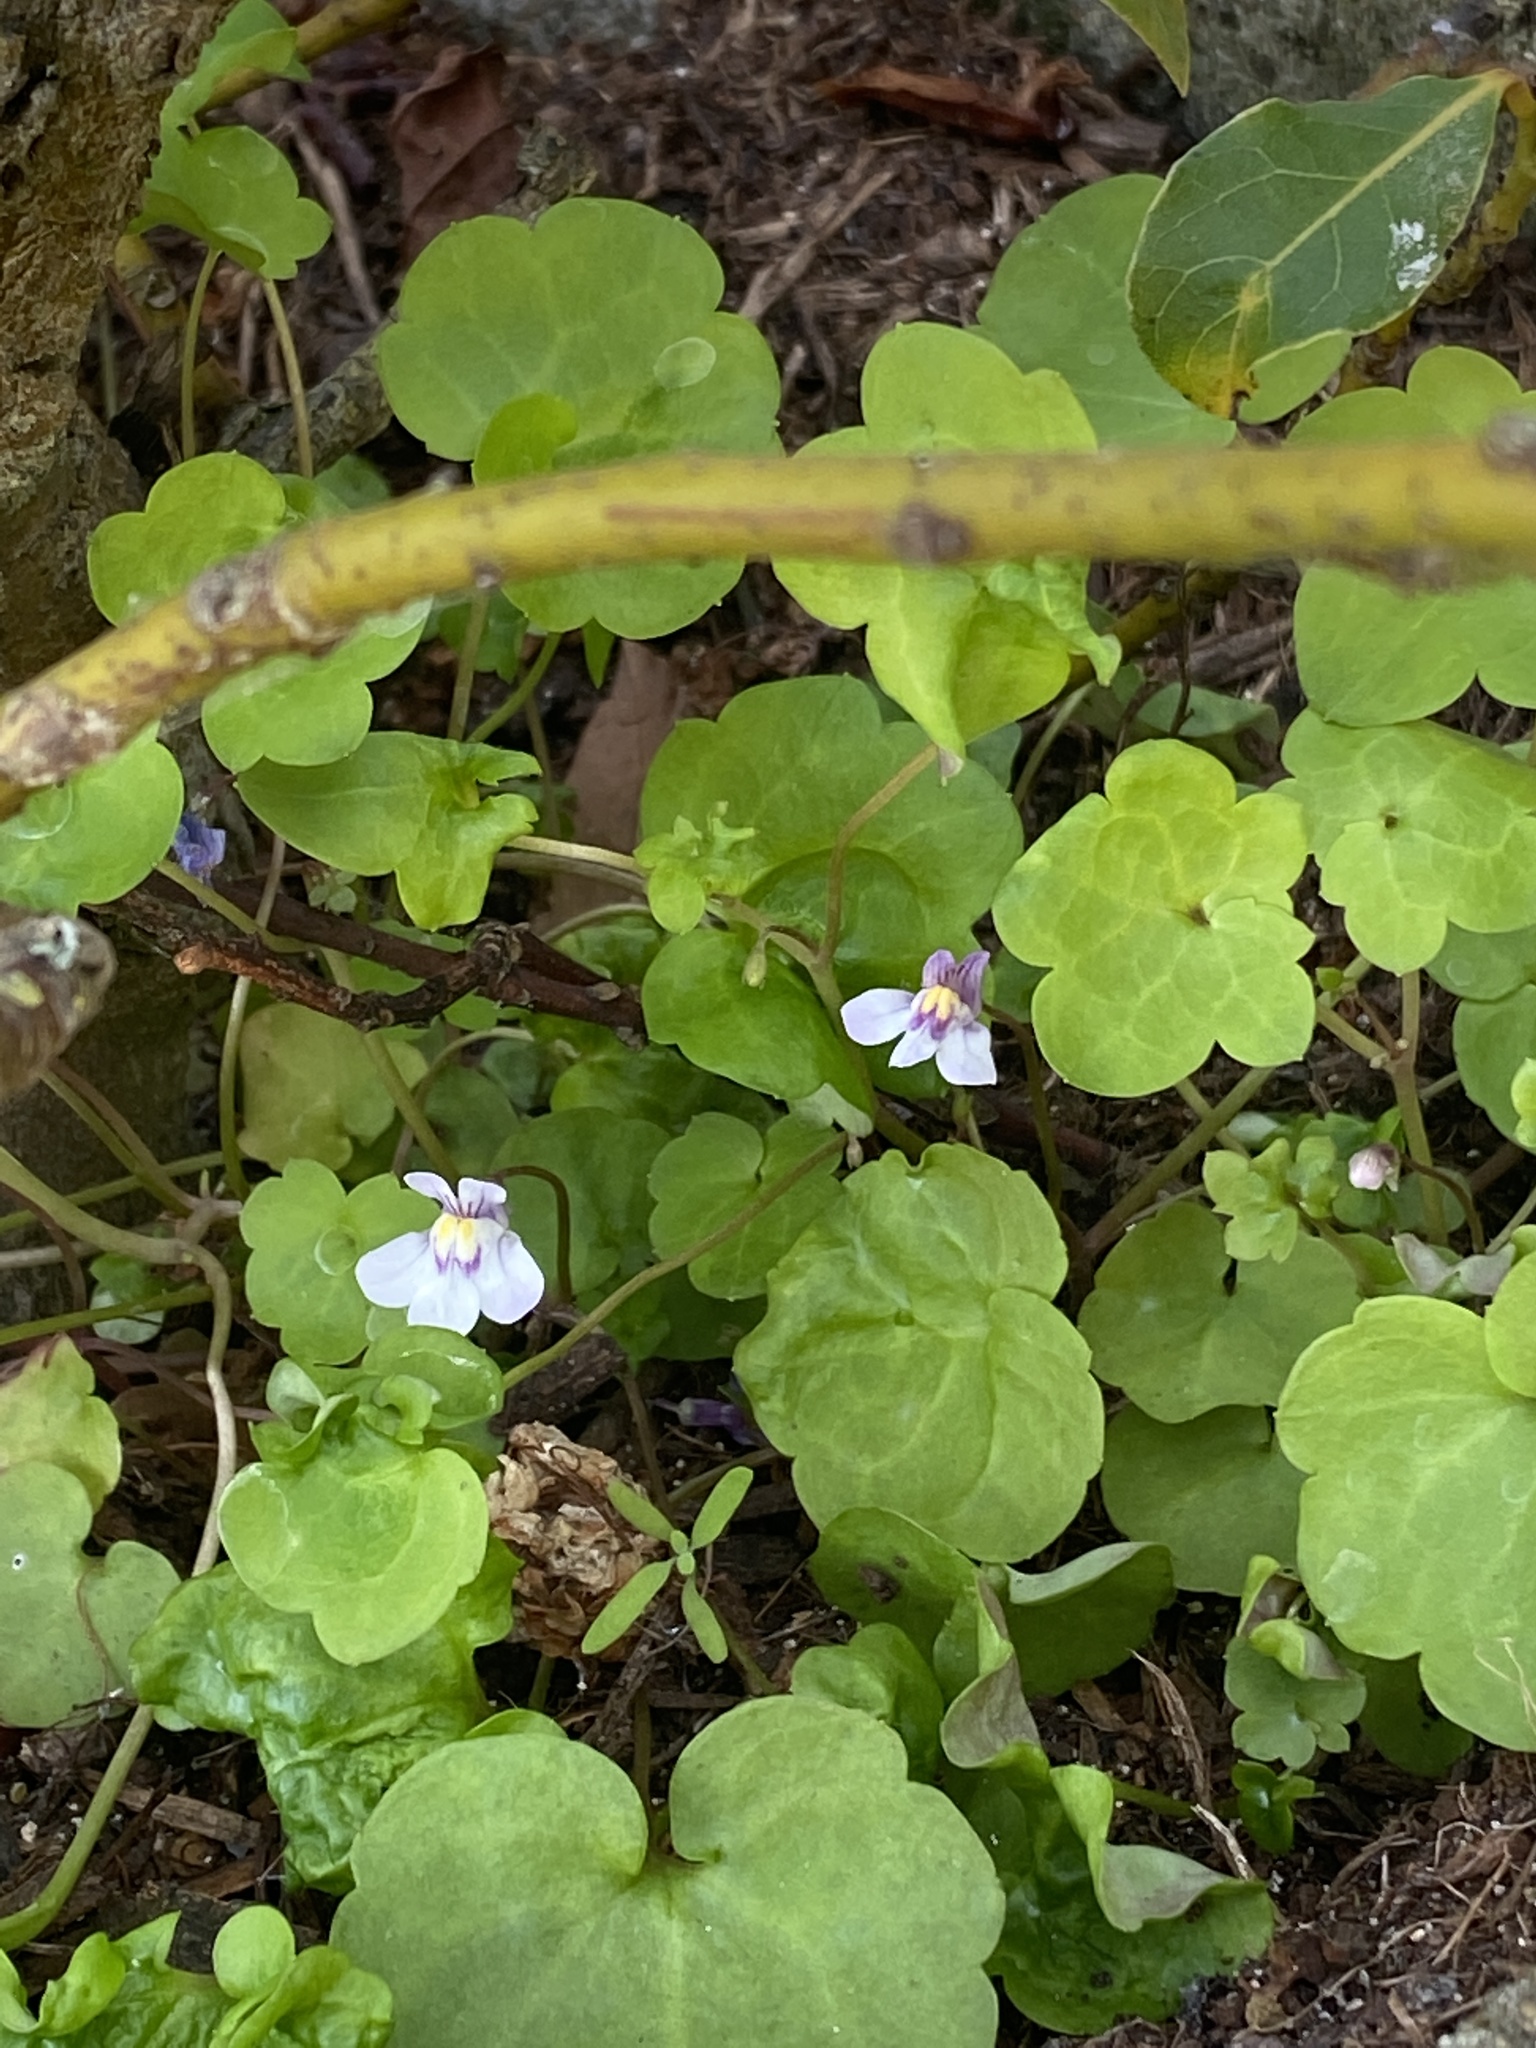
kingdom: Plantae
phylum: Tracheophyta
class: Magnoliopsida
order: Lamiales
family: Plantaginaceae
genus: Cymbalaria
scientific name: Cymbalaria muralis
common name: Ivy-leaved toadflax
